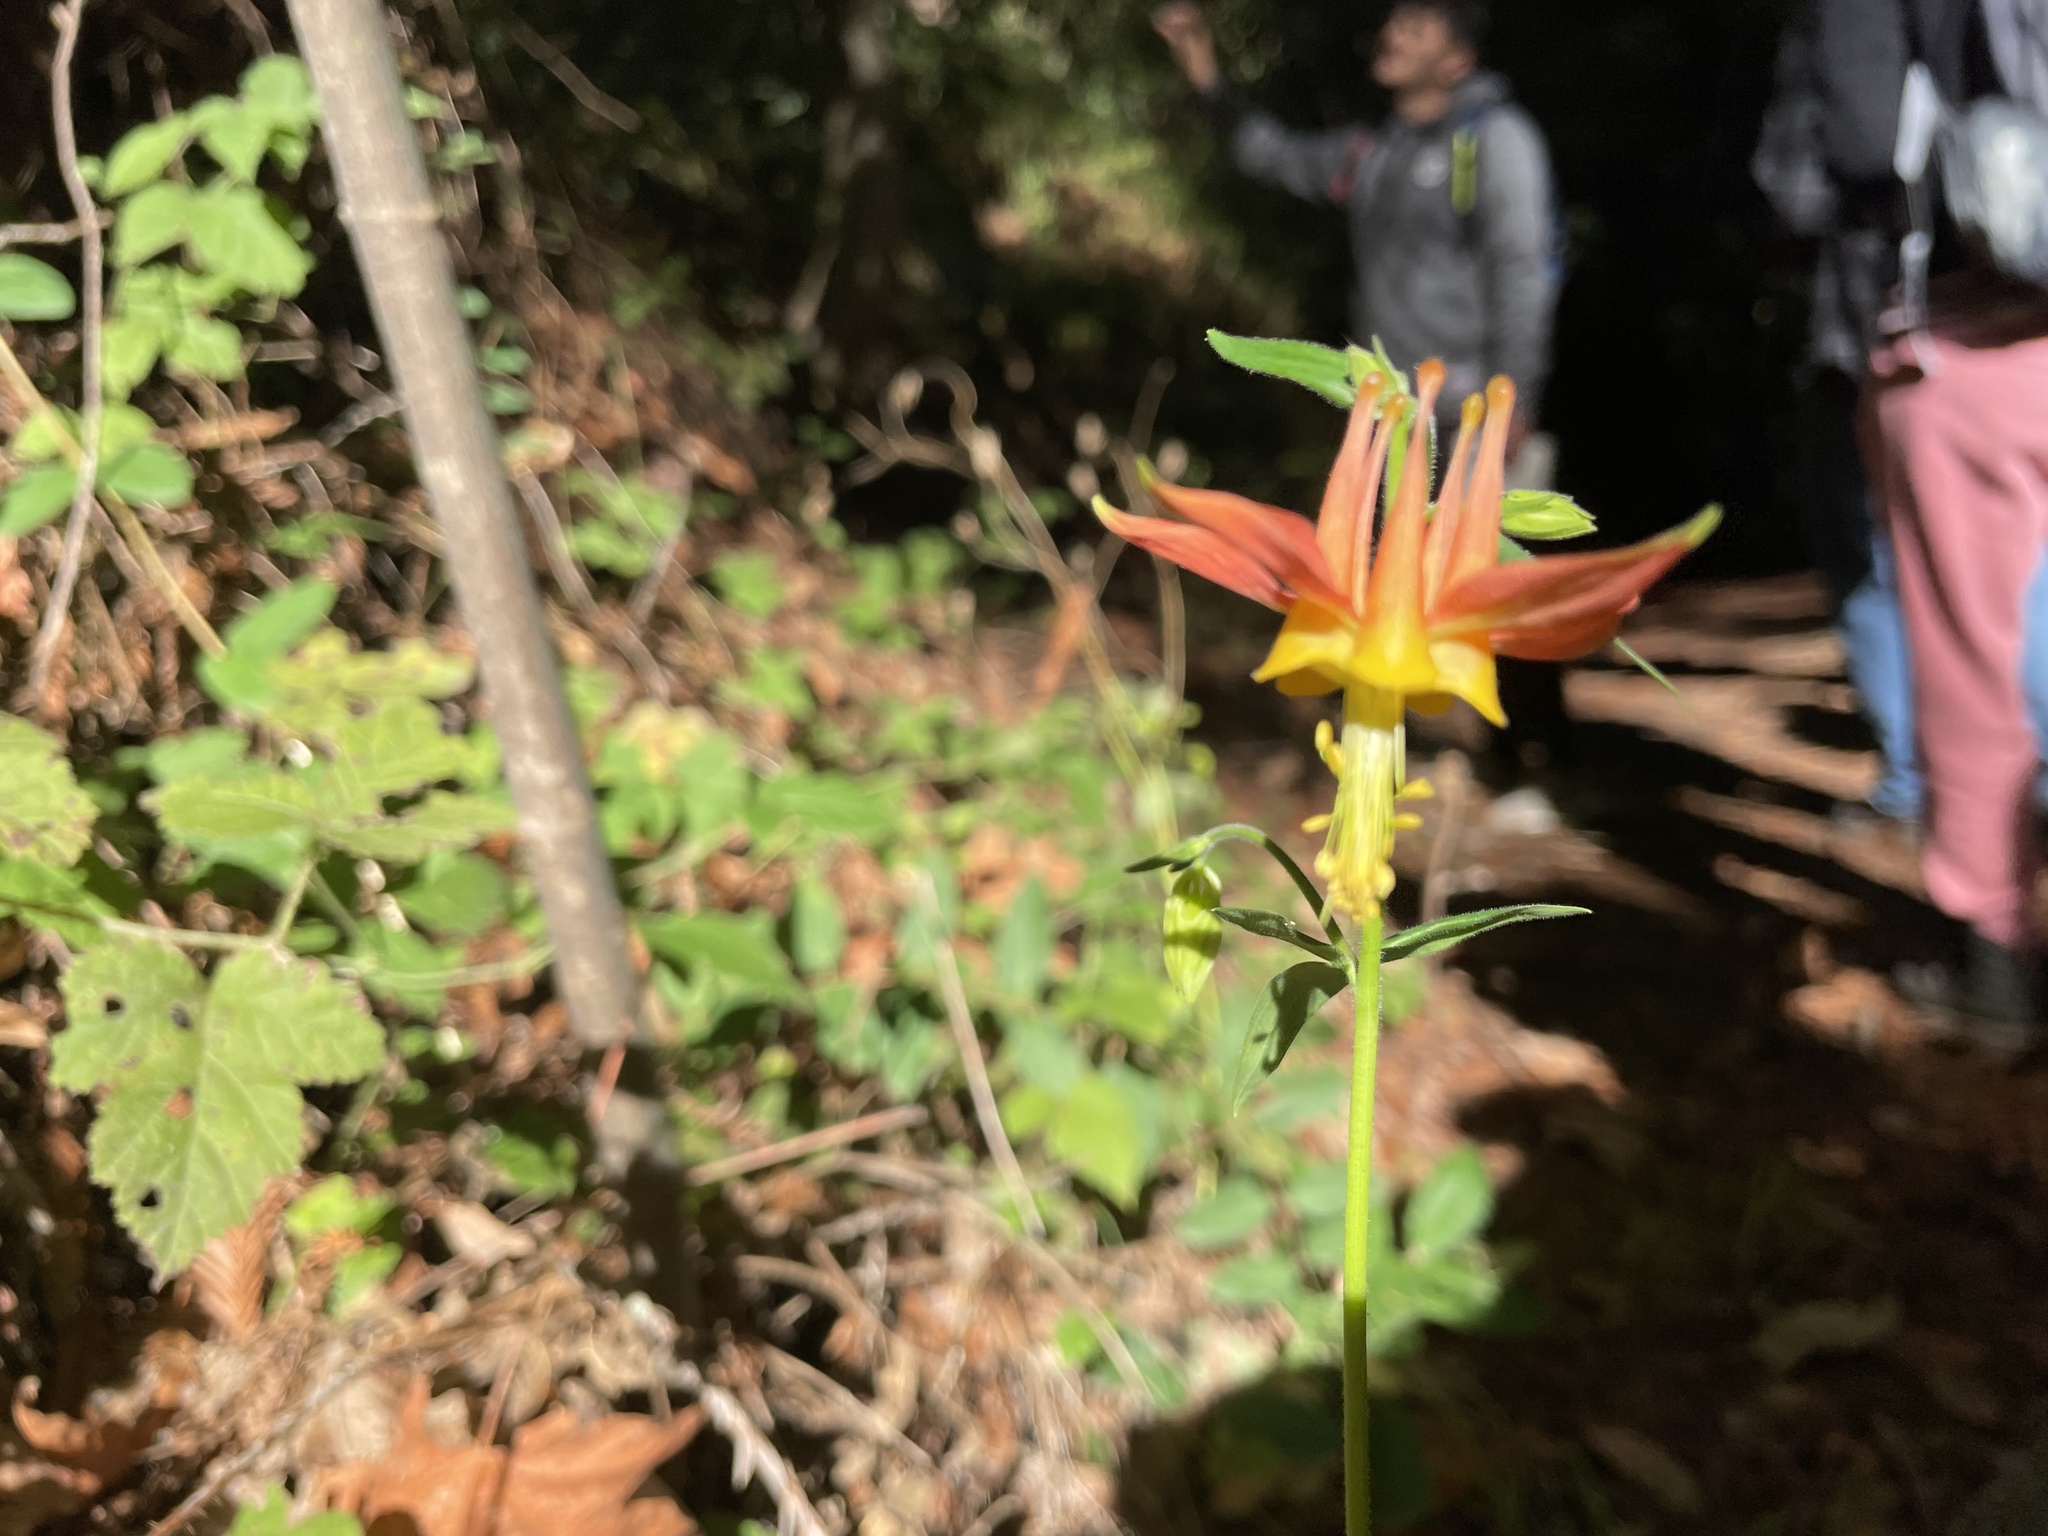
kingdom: Plantae
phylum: Tracheophyta
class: Magnoliopsida
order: Ranunculales
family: Ranunculaceae
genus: Aquilegia
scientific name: Aquilegia formosa
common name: Sitka columbine
